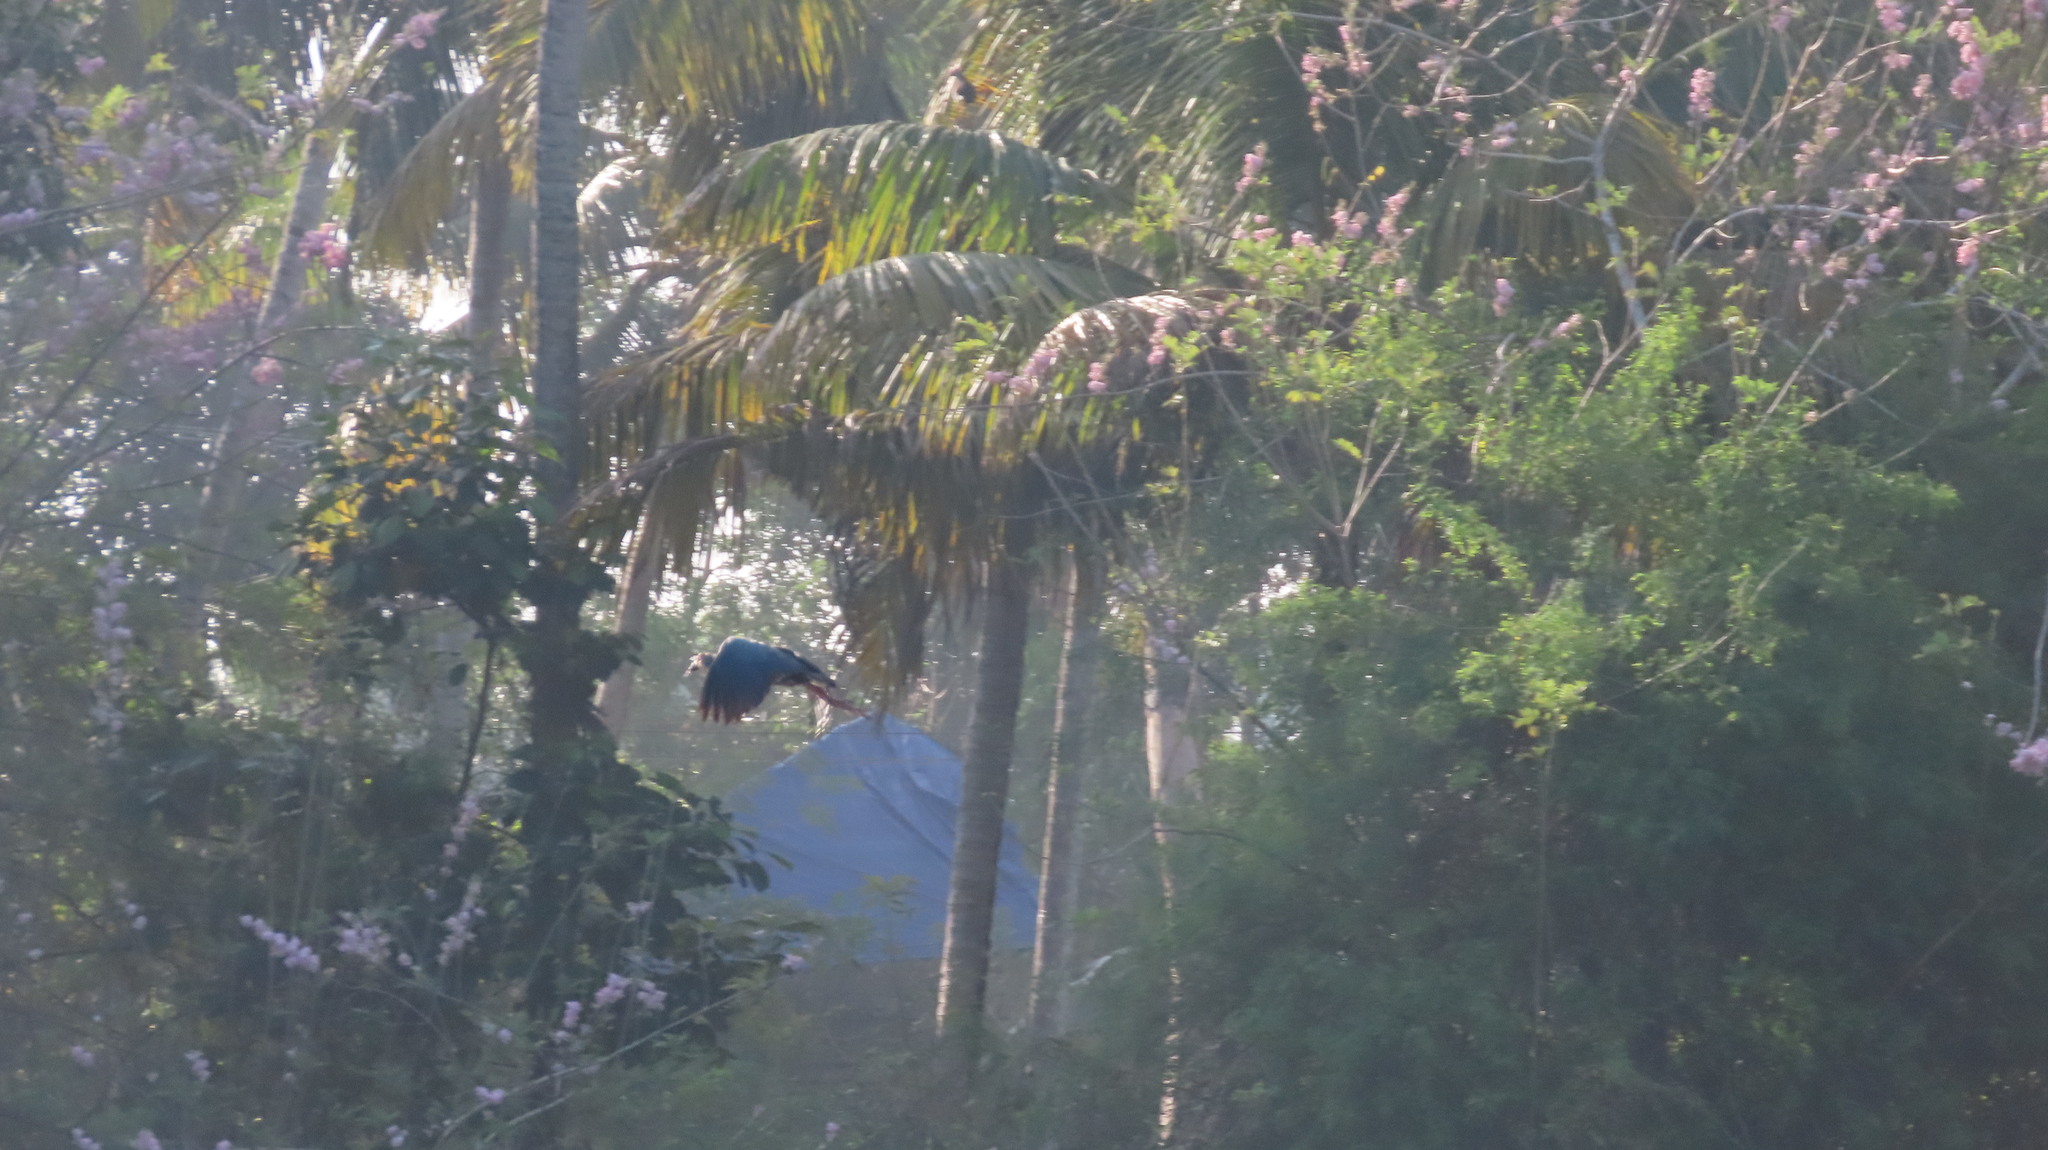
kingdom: Animalia
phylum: Chordata
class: Aves
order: Gruiformes
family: Rallidae
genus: Porphyrio
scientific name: Porphyrio porphyrio
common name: Purple swamphen
